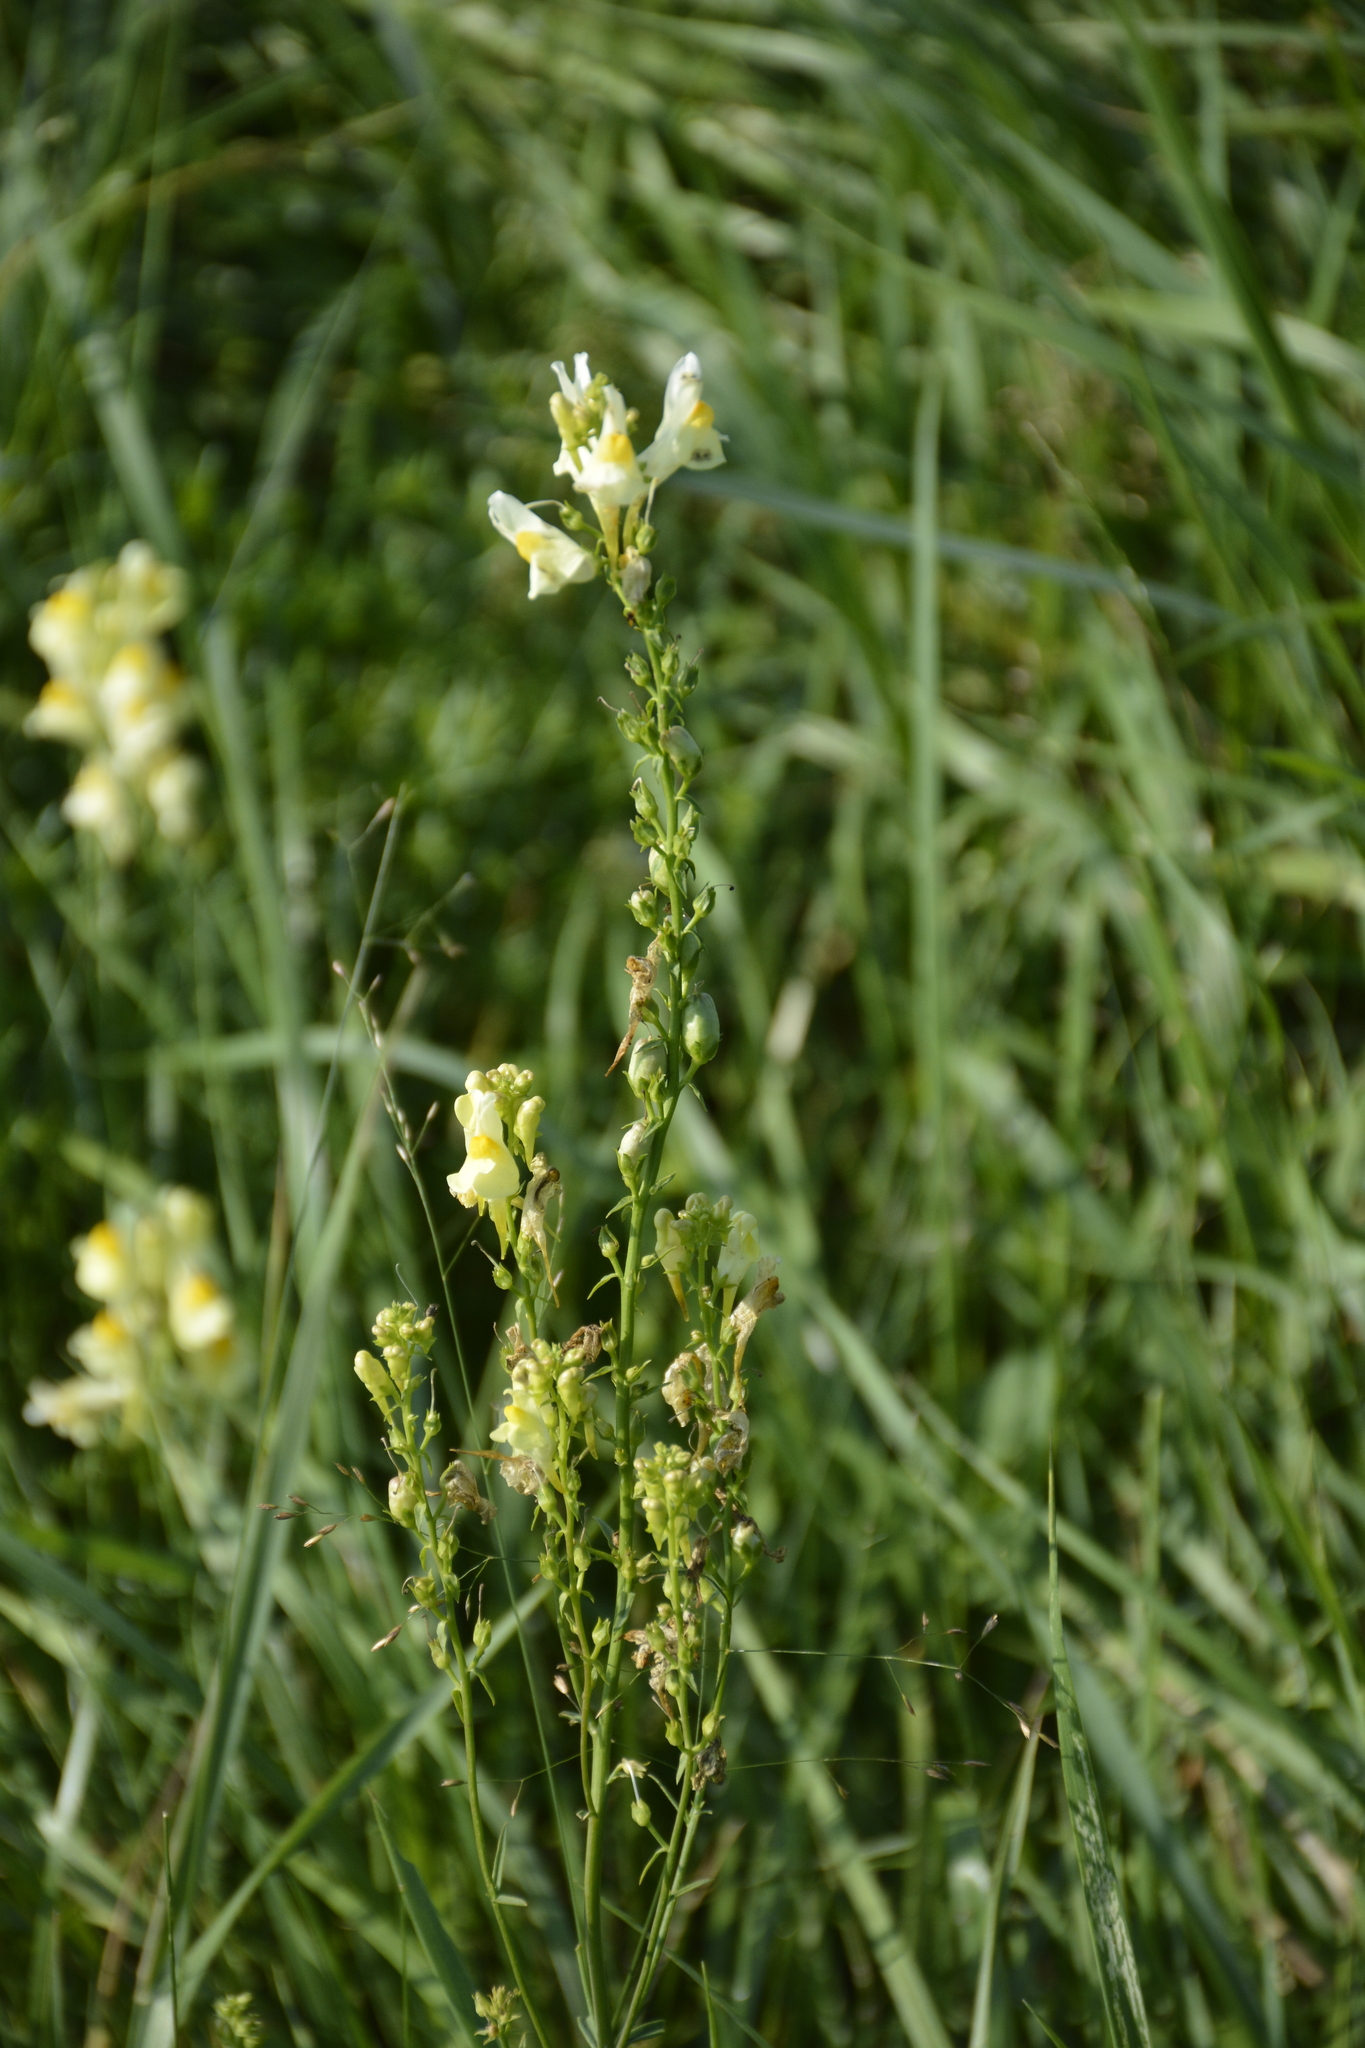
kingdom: Plantae
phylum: Tracheophyta
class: Magnoliopsida
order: Lamiales
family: Plantaginaceae
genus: Linaria
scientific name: Linaria vulgaris
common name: Butter and eggs
